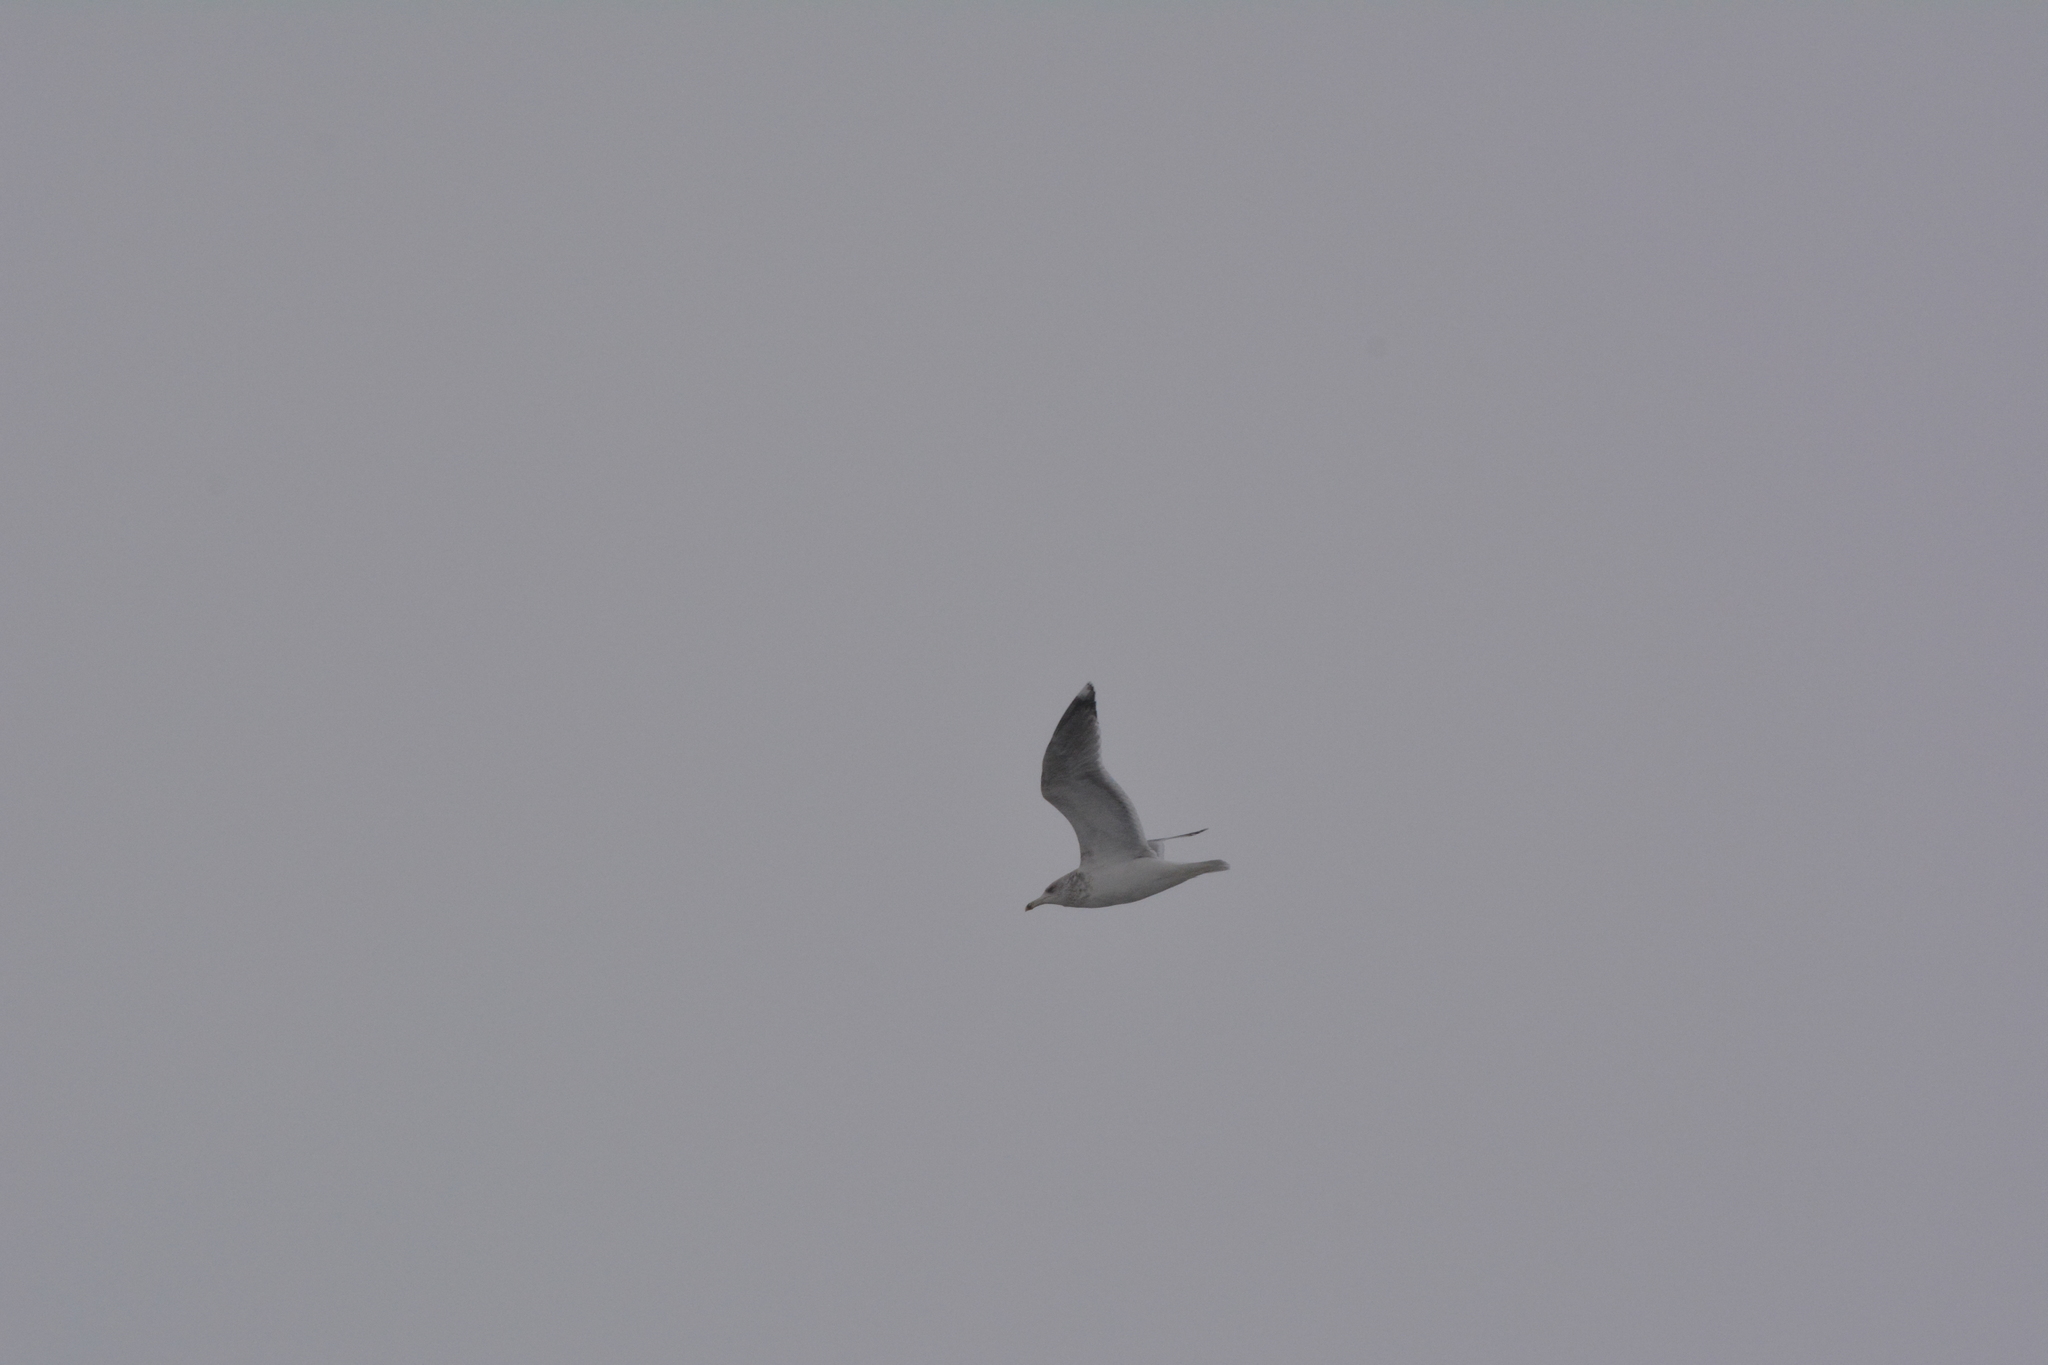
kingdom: Animalia
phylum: Chordata
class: Aves
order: Charadriiformes
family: Laridae
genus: Larus
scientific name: Larus argentatus
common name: Herring gull
